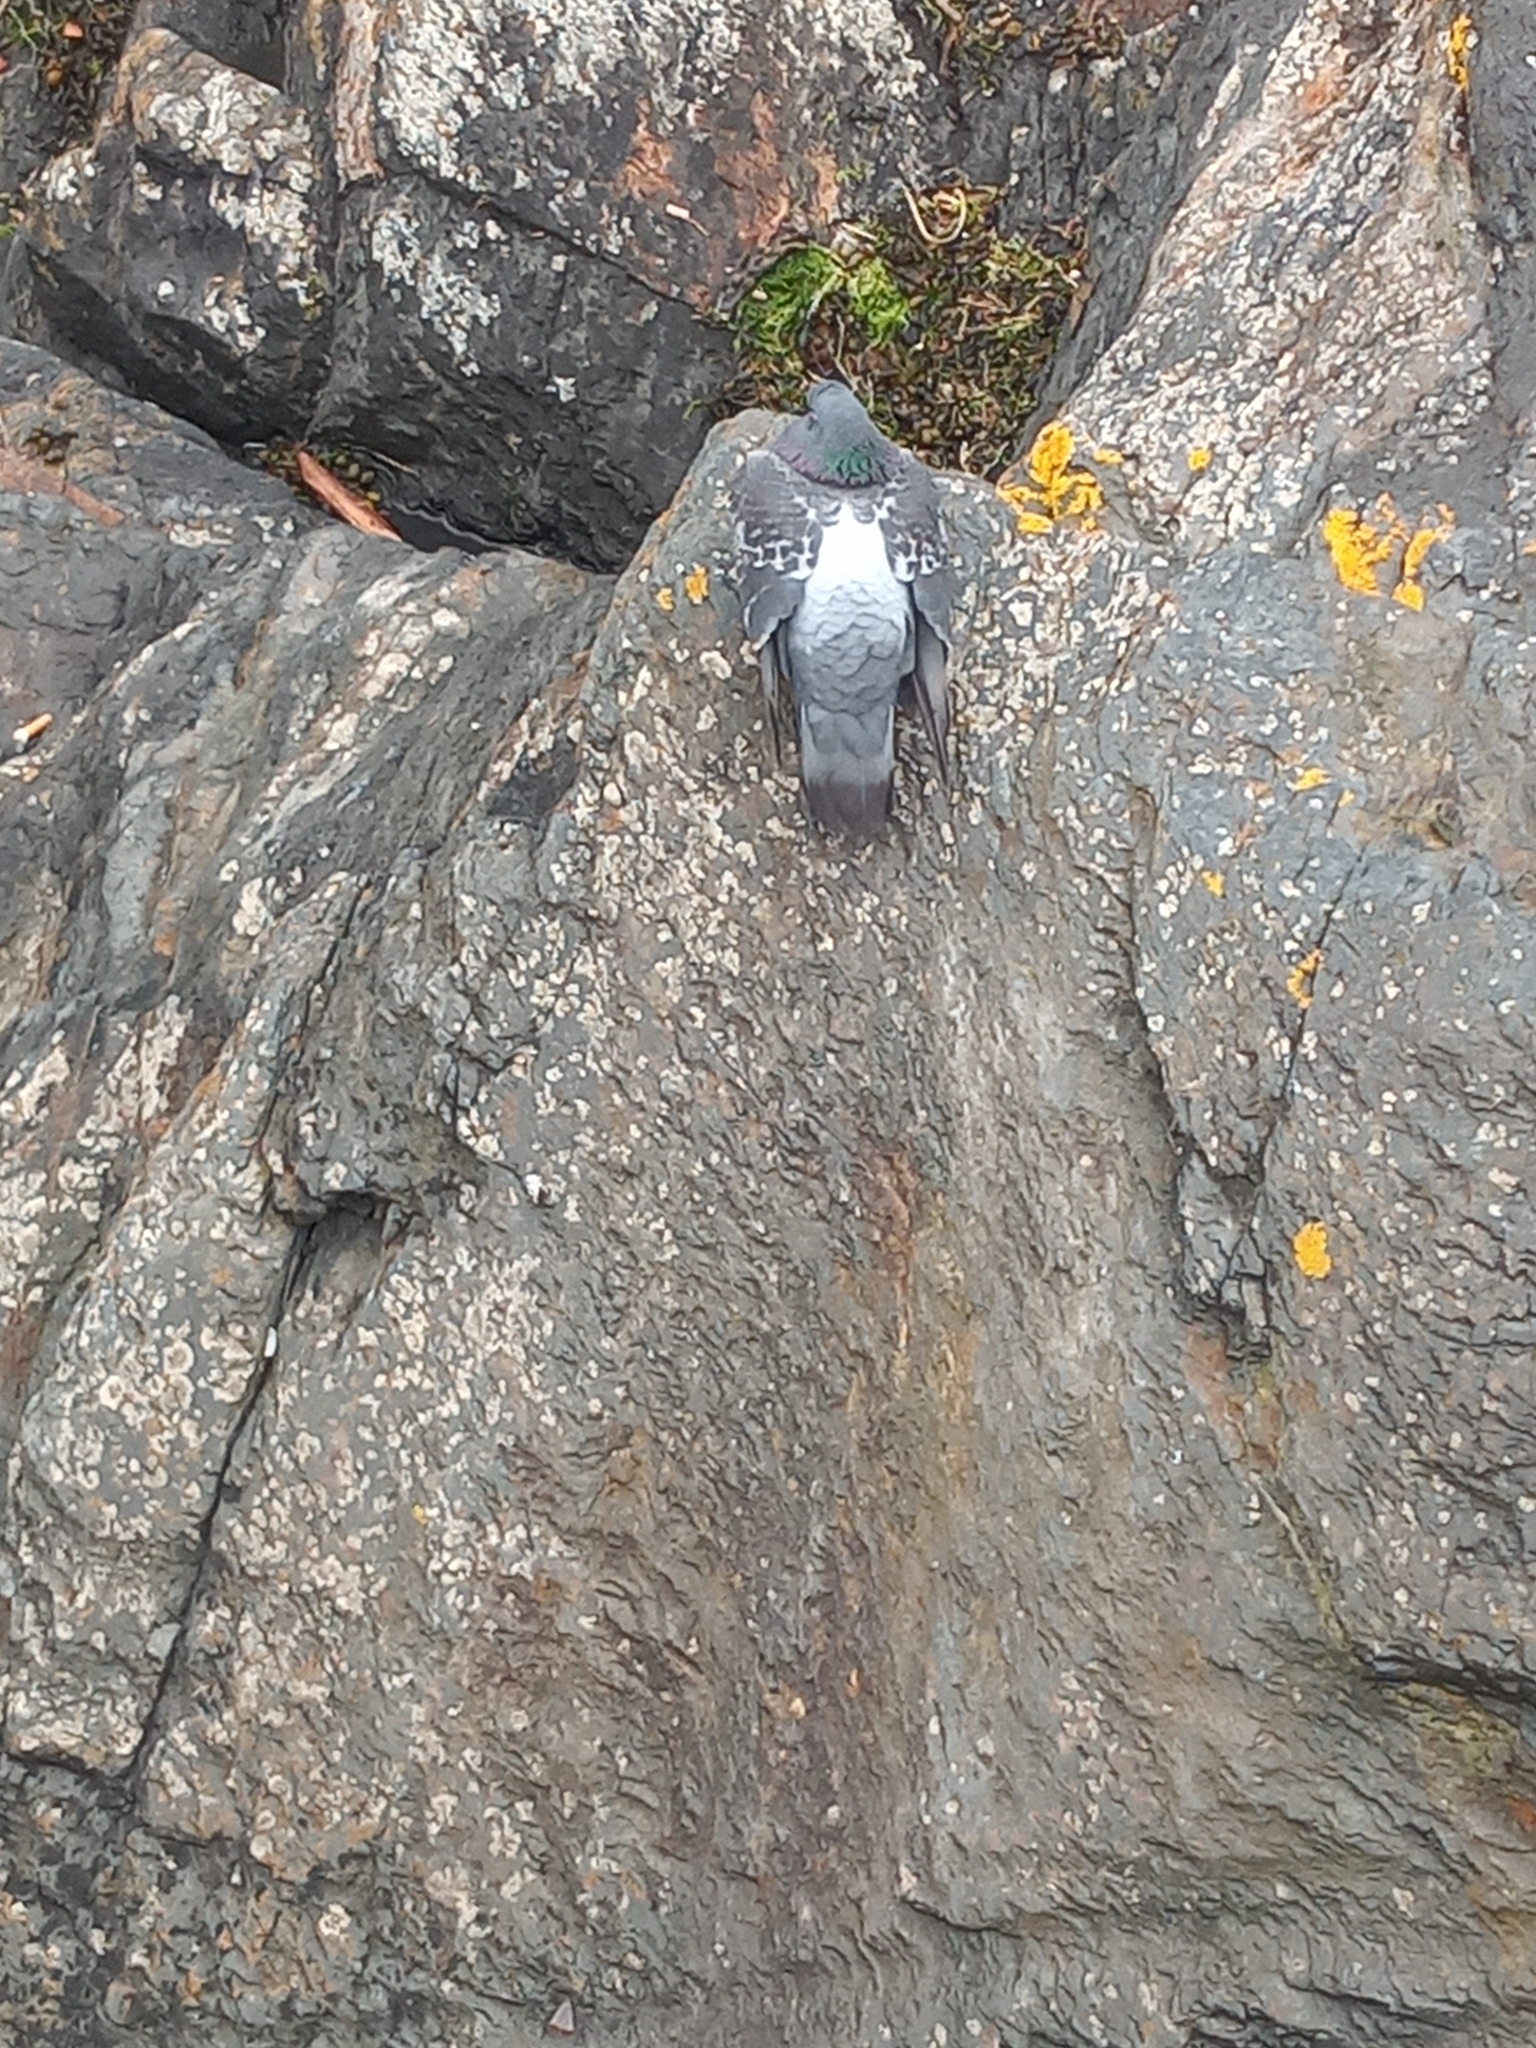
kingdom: Animalia
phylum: Chordata
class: Aves
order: Columbiformes
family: Columbidae
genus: Columba
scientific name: Columba livia
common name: Rock pigeon
